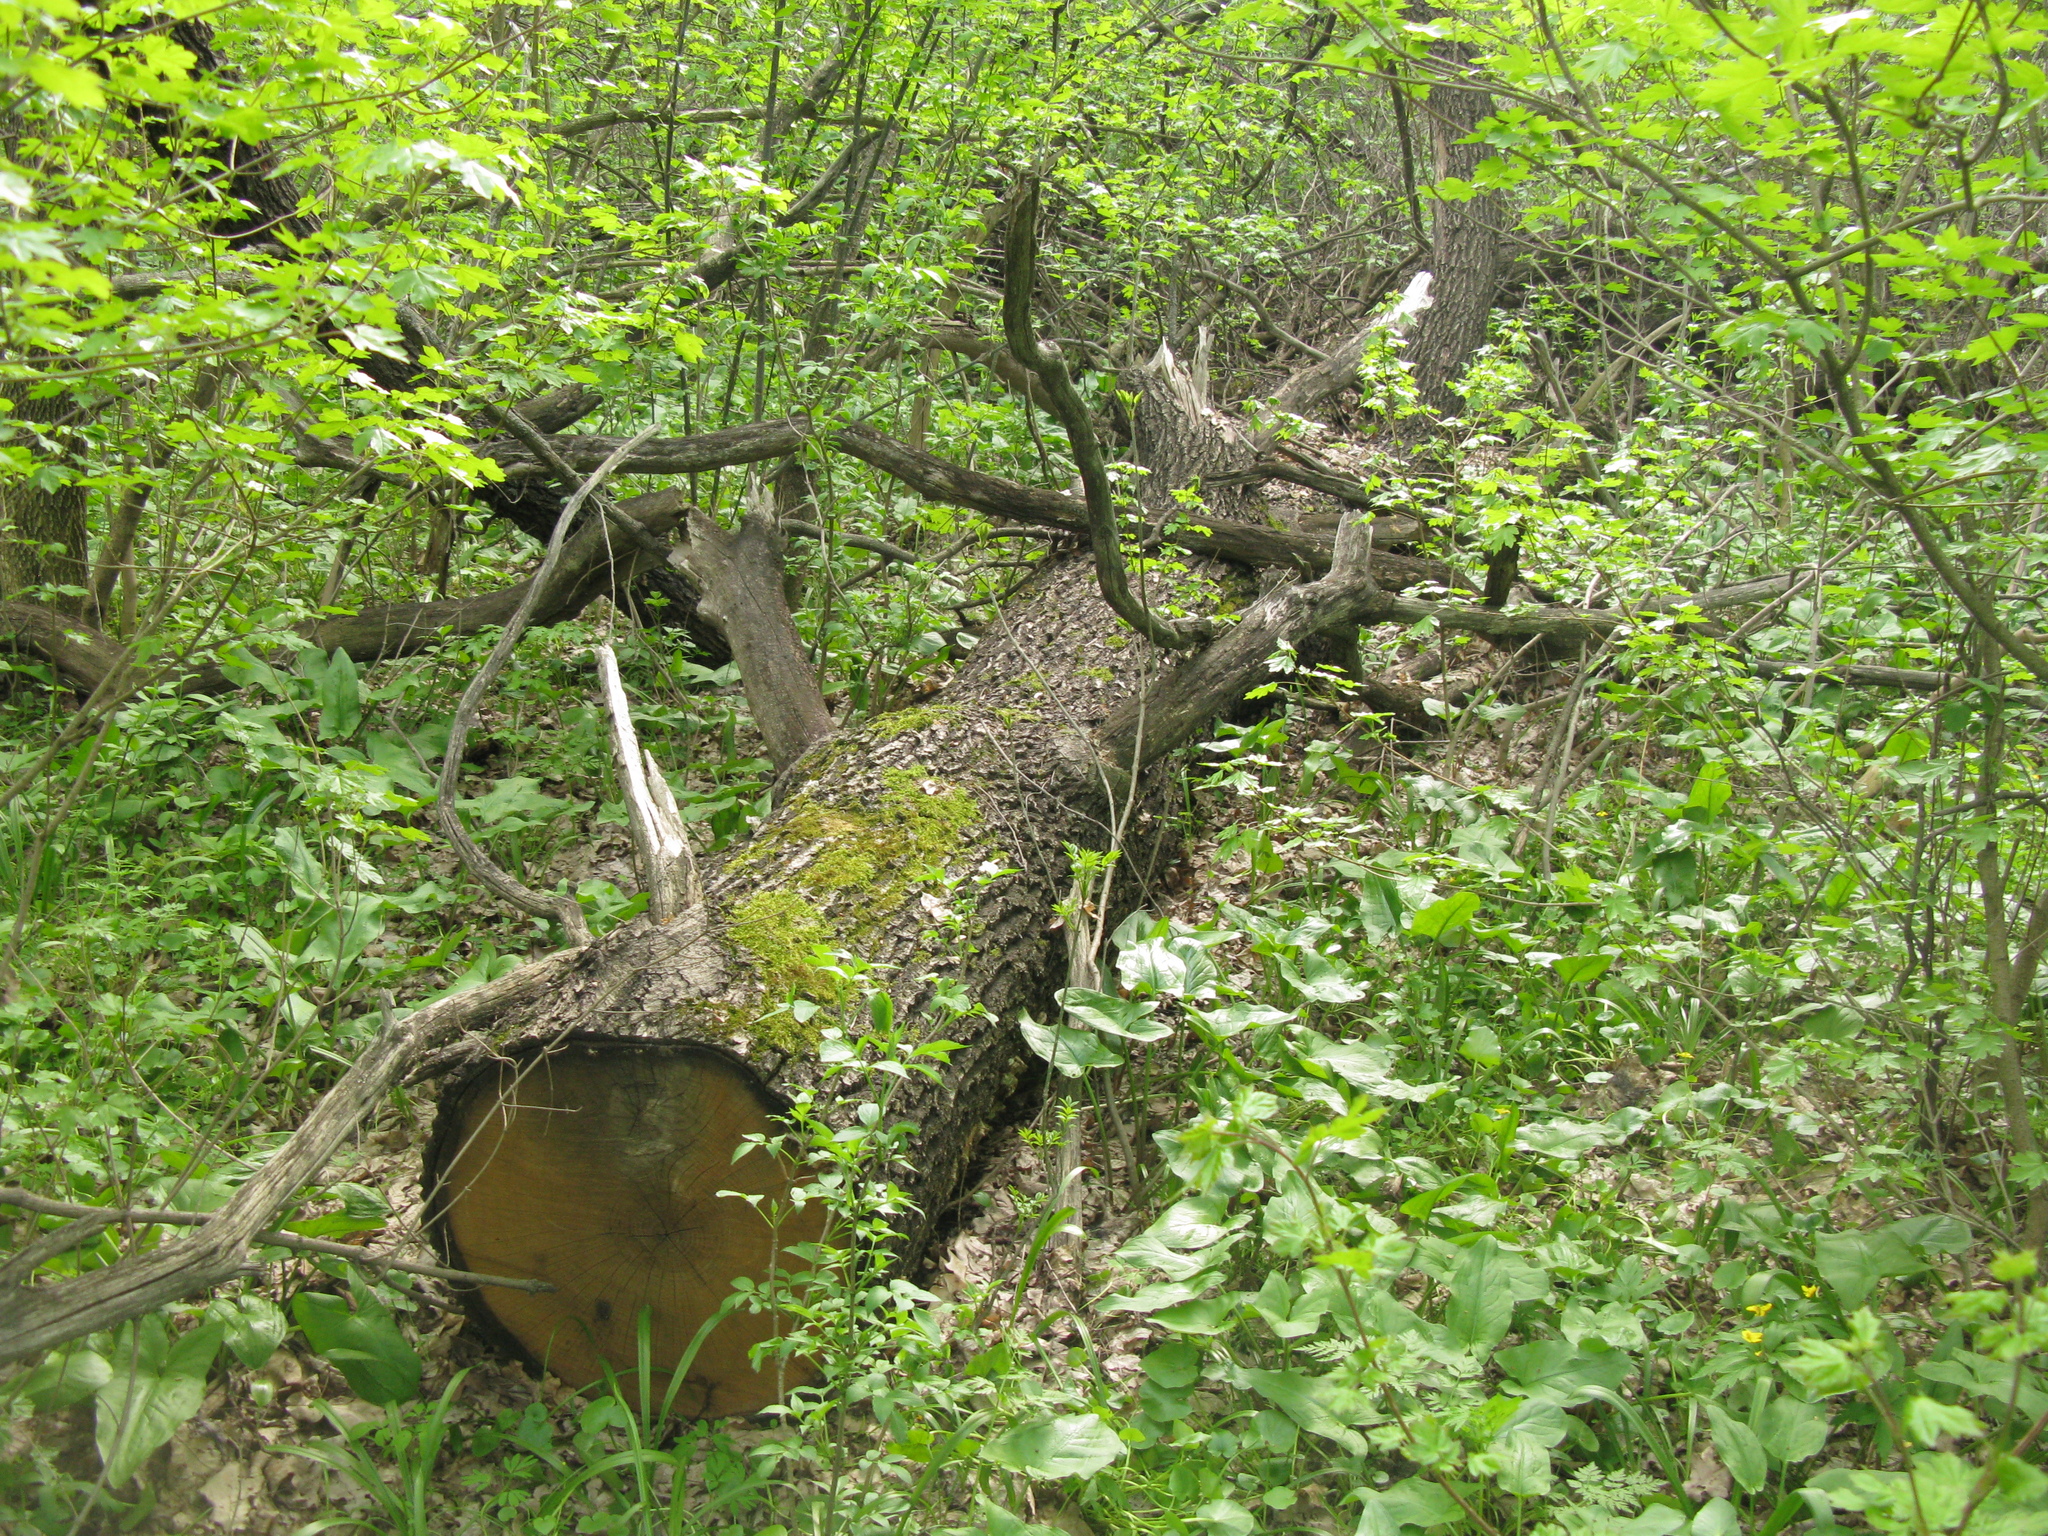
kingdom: Plantae
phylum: Tracheophyta
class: Magnoliopsida
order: Ranunculales
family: Ranunculaceae
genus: Anemone
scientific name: Anemone ranunculoides
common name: Yellow anemone
